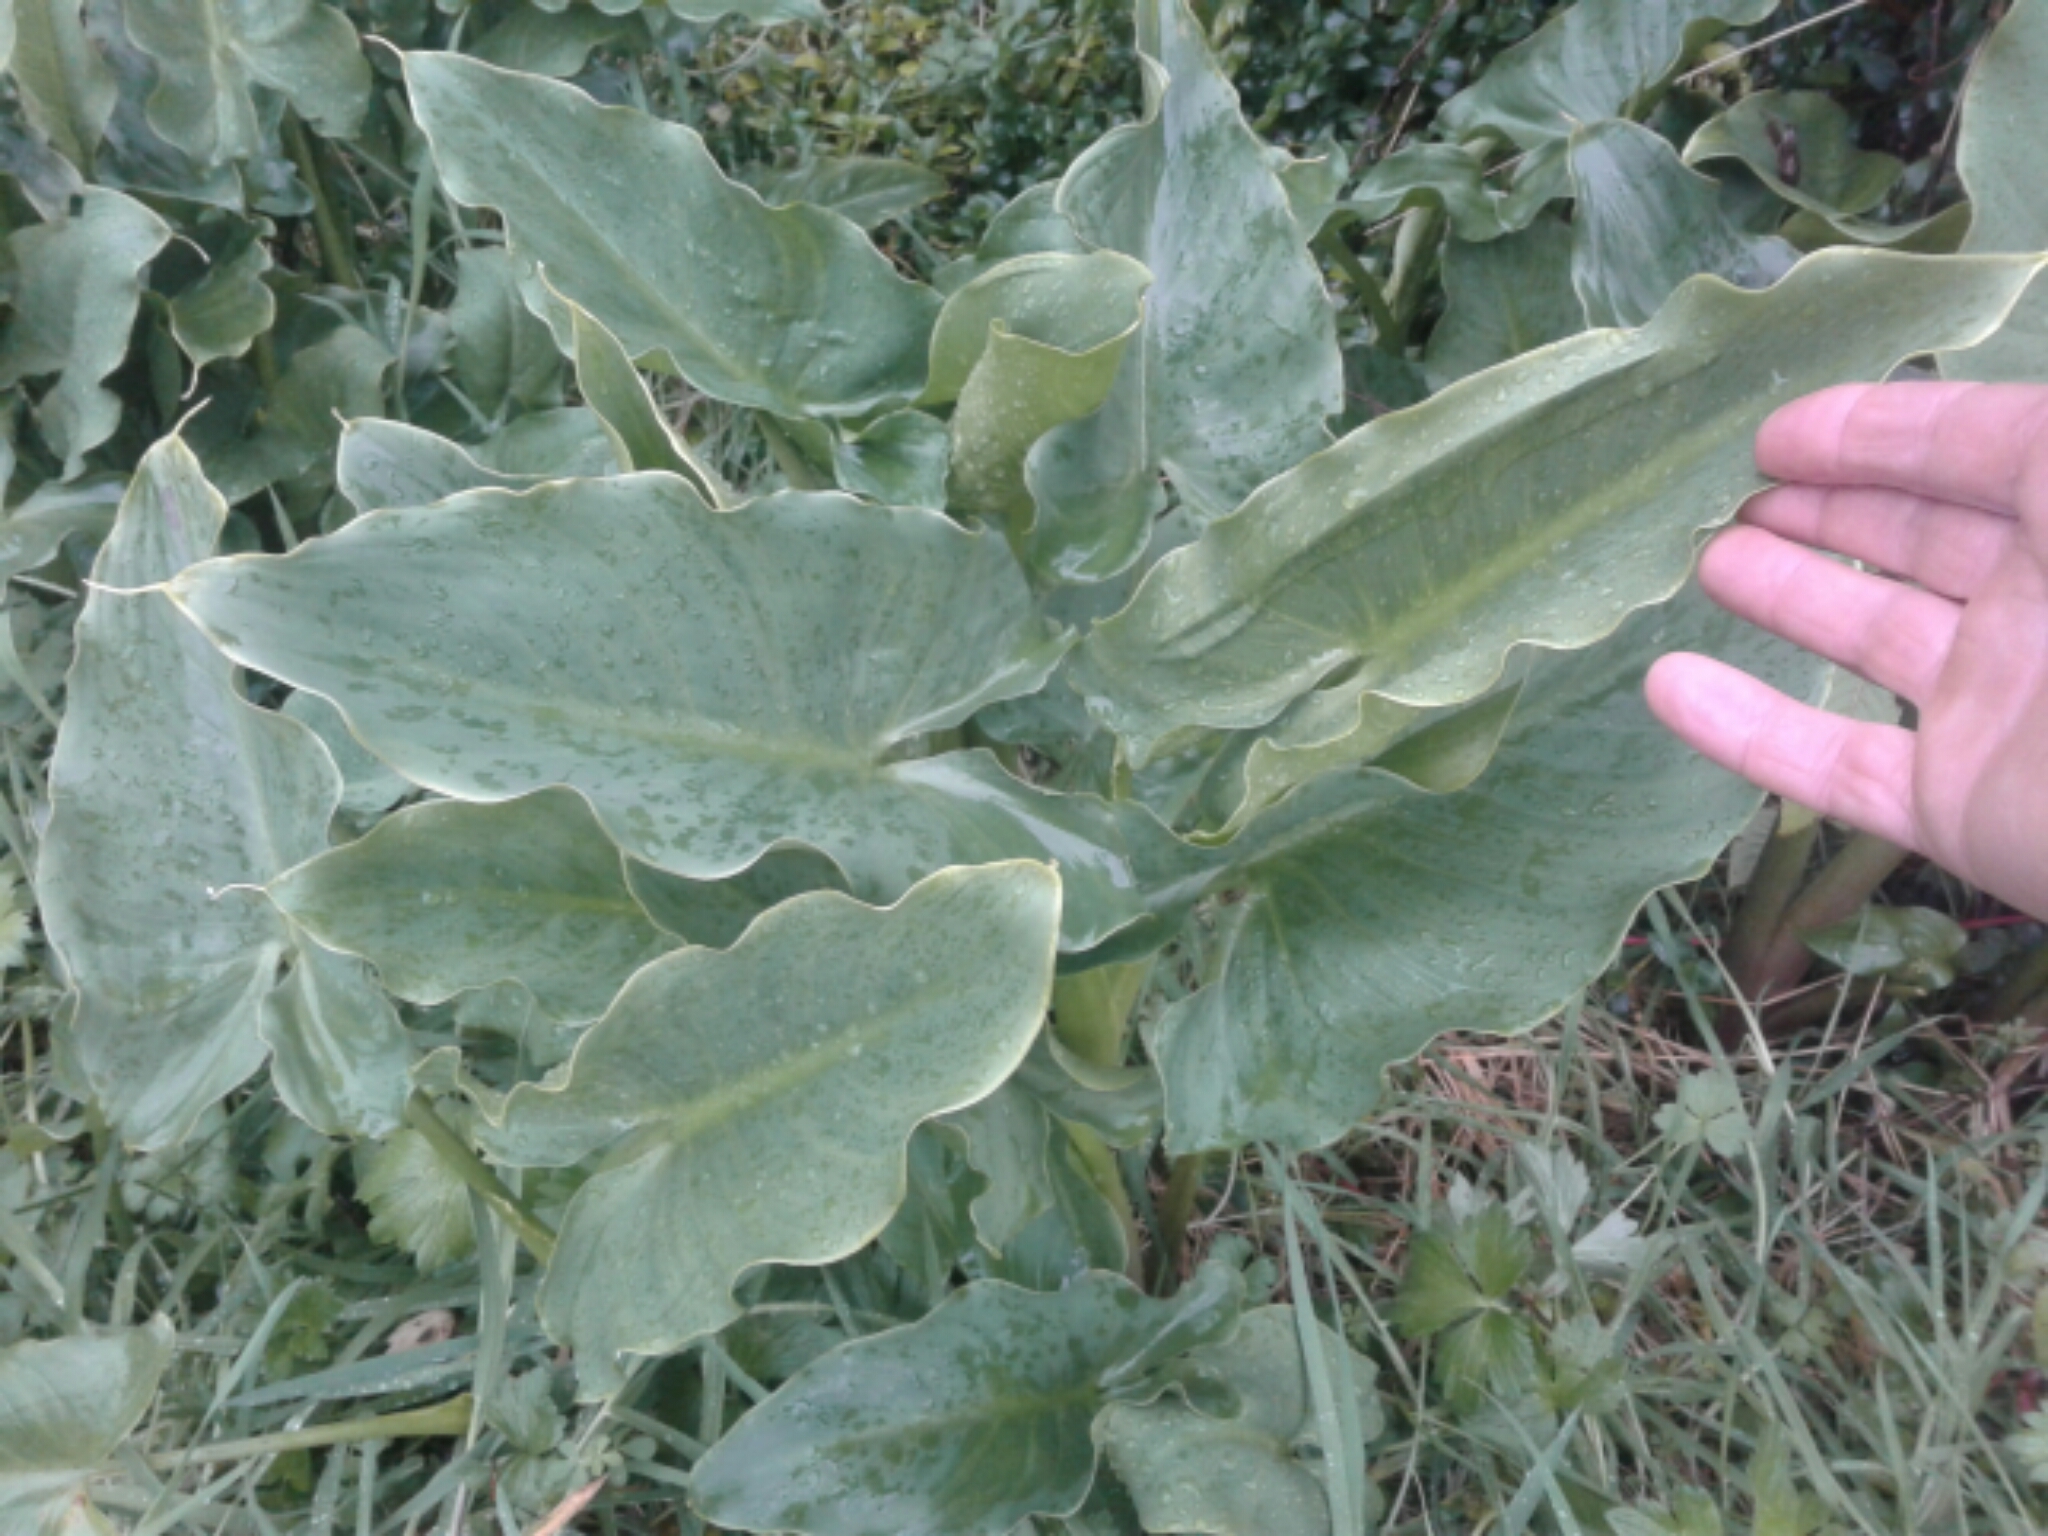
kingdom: Plantae
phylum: Tracheophyta
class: Liliopsida
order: Alismatales
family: Araceae
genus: Zantedeschia
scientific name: Zantedeschia aethiopica
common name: Altar-lily
